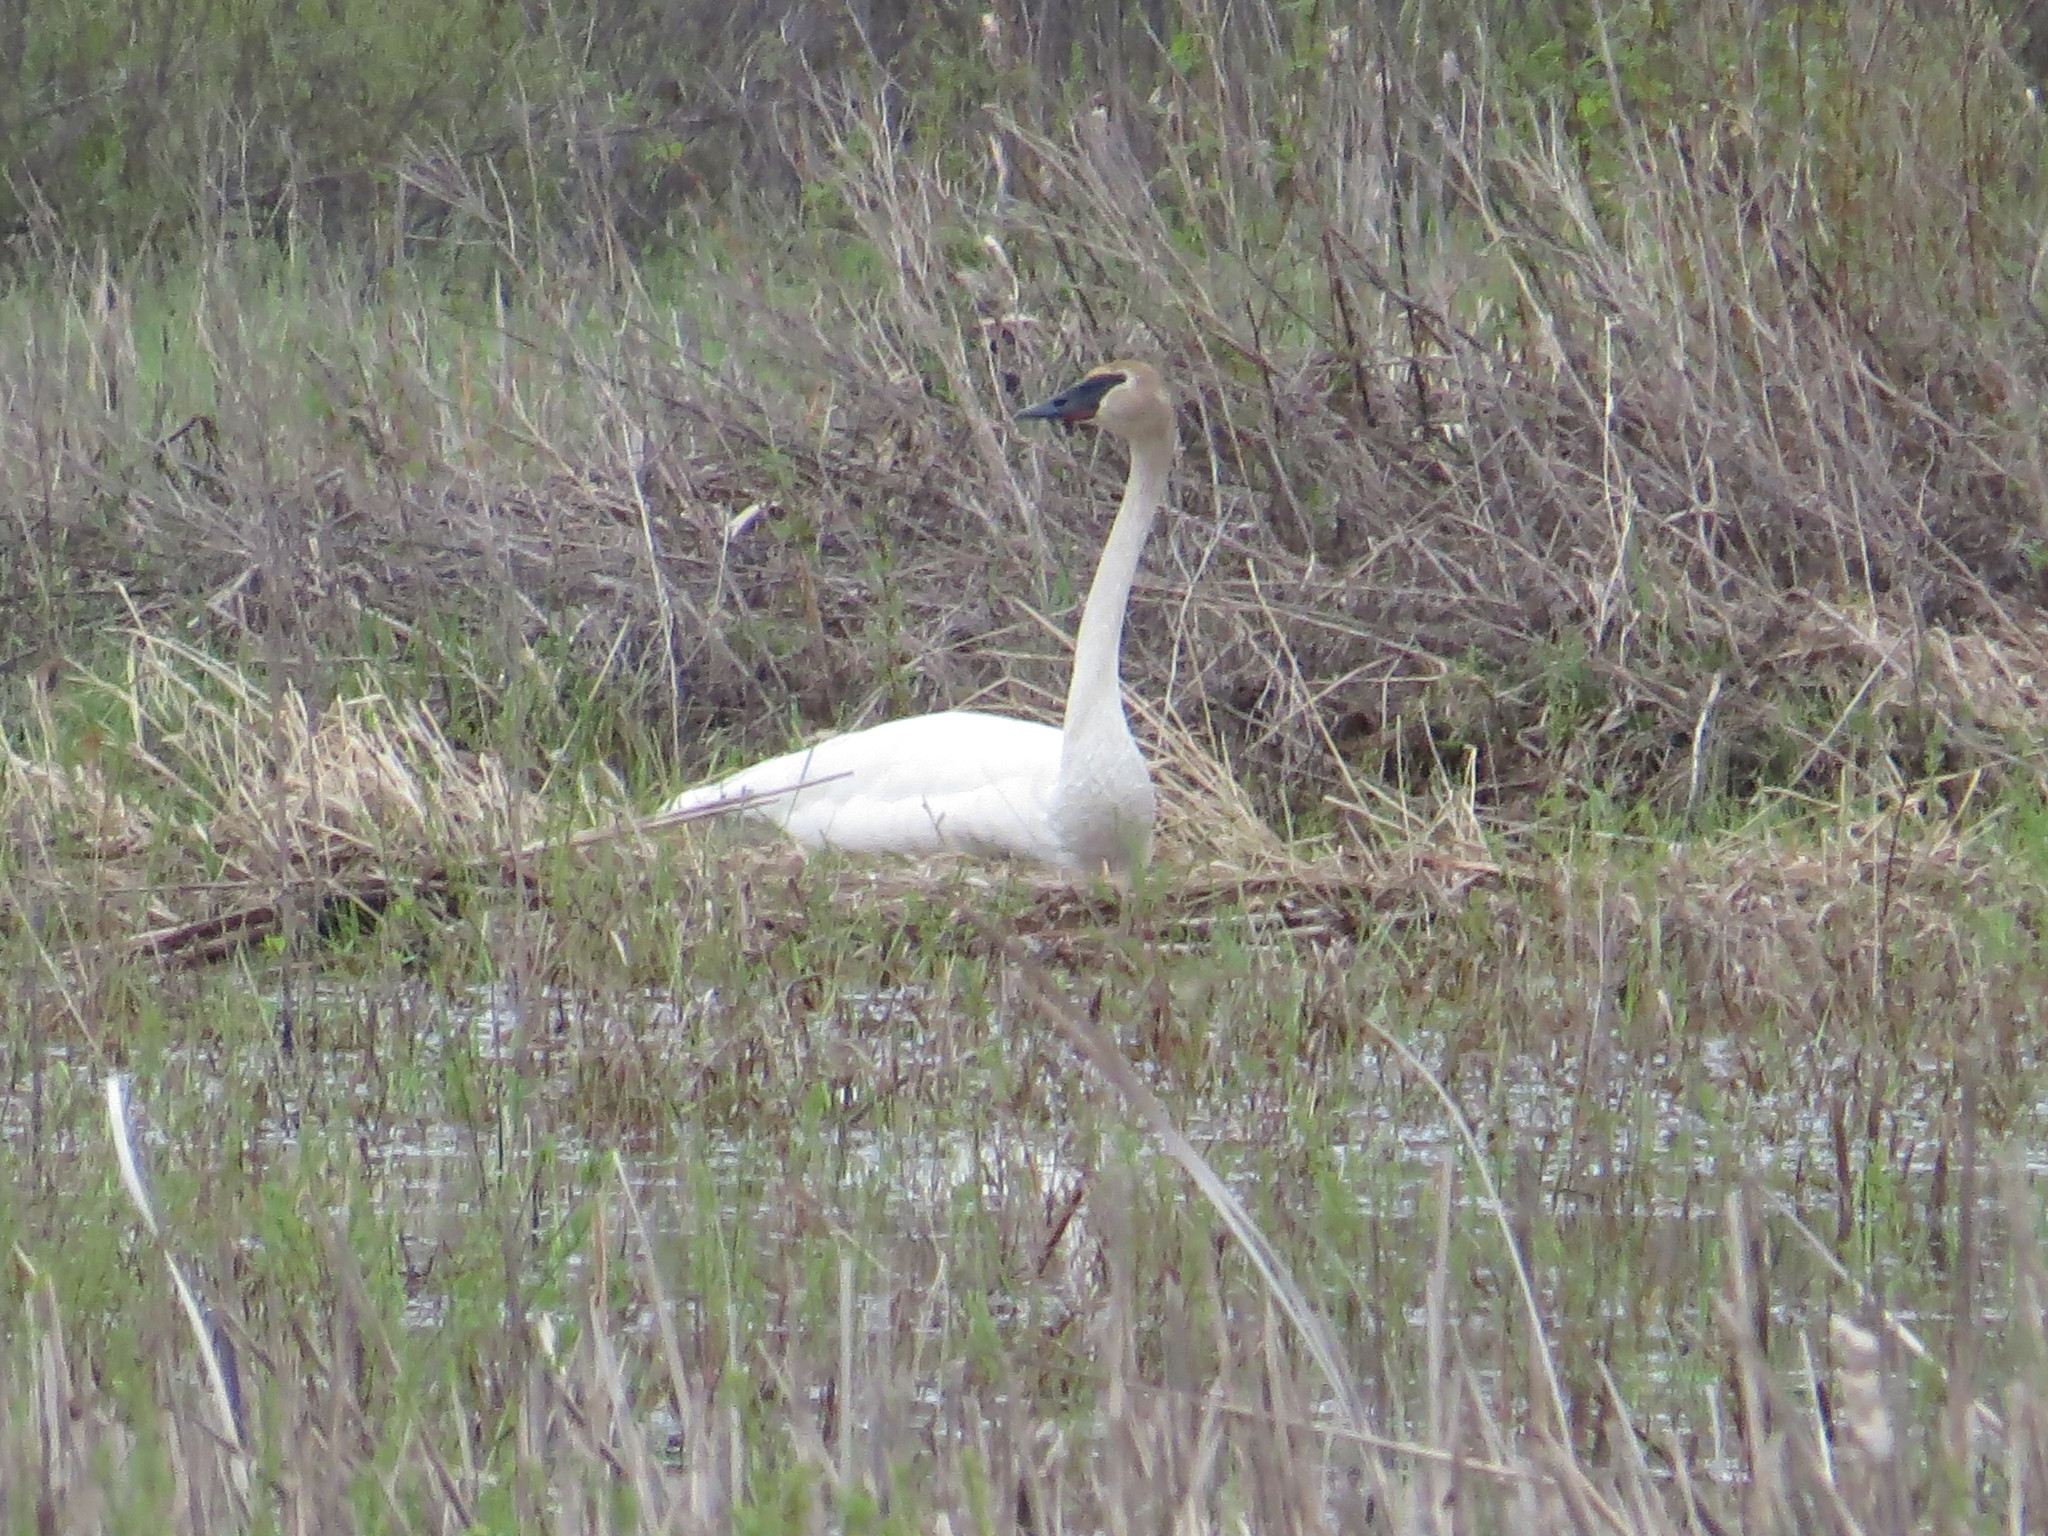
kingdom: Animalia
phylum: Chordata
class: Aves
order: Anseriformes
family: Anatidae
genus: Cygnus
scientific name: Cygnus buccinator
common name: Trumpeter swan
